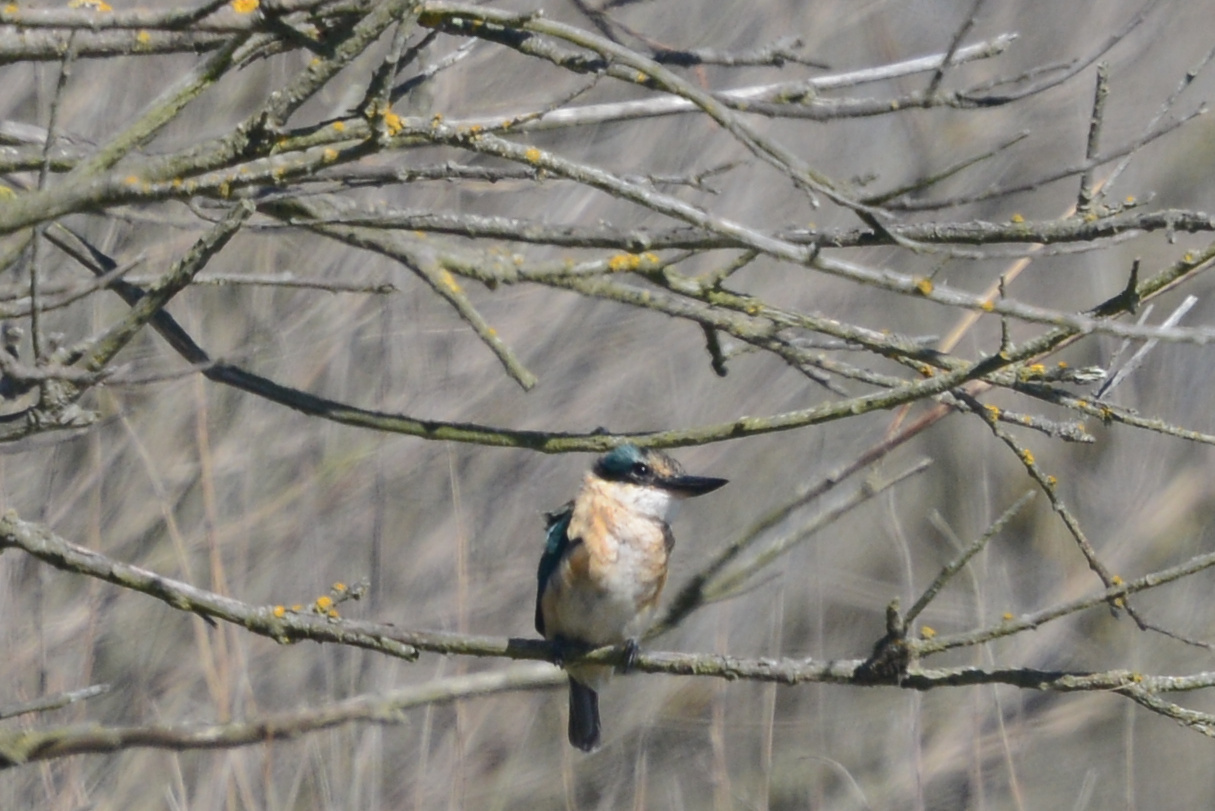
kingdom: Animalia
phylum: Chordata
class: Aves
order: Coraciiformes
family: Alcedinidae
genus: Todiramphus
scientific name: Todiramphus sanctus
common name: Sacred kingfisher
